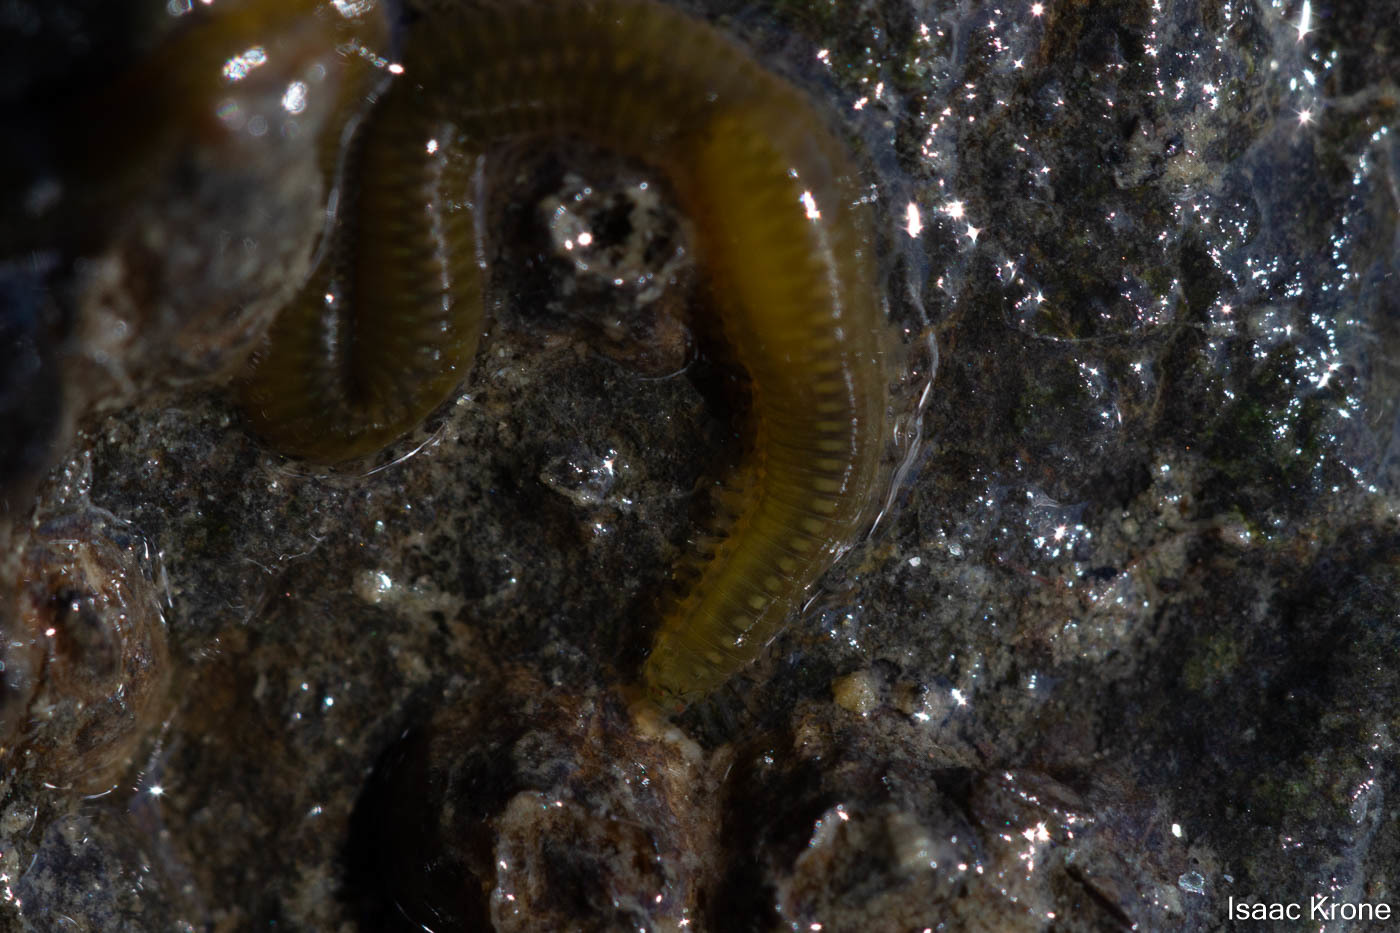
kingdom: Animalia
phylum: Annelida
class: Polychaeta
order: Phyllodocida
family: Syllidae
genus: Syllis
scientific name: Syllis adamantea
